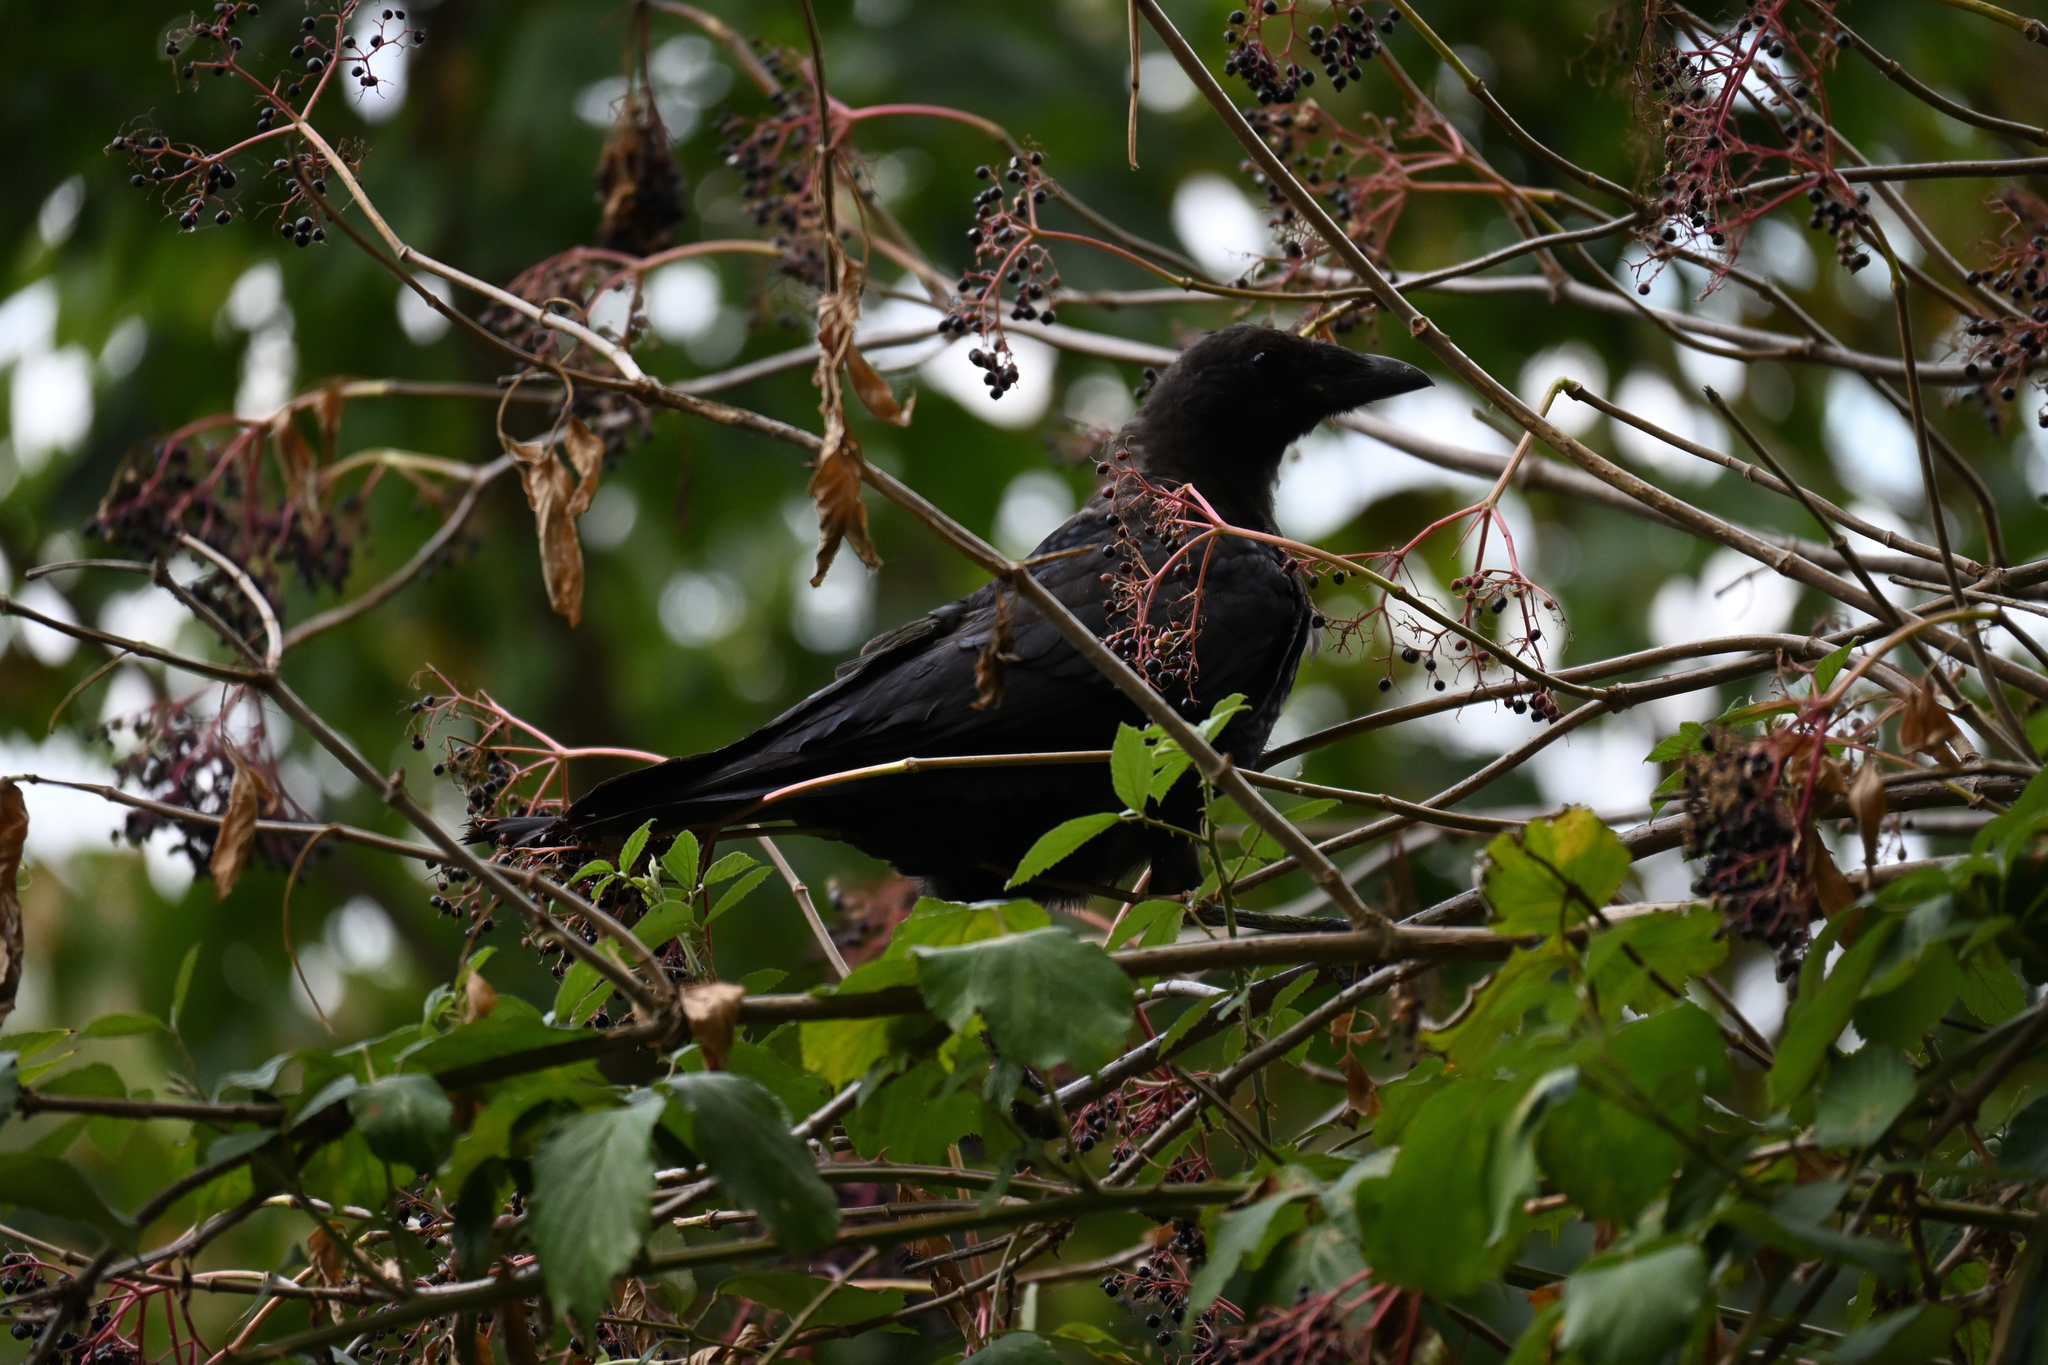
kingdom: Animalia
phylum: Chordata
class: Aves
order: Passeriformes
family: Corvidae
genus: Corvus
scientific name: Corvus corone
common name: Carrion crow
